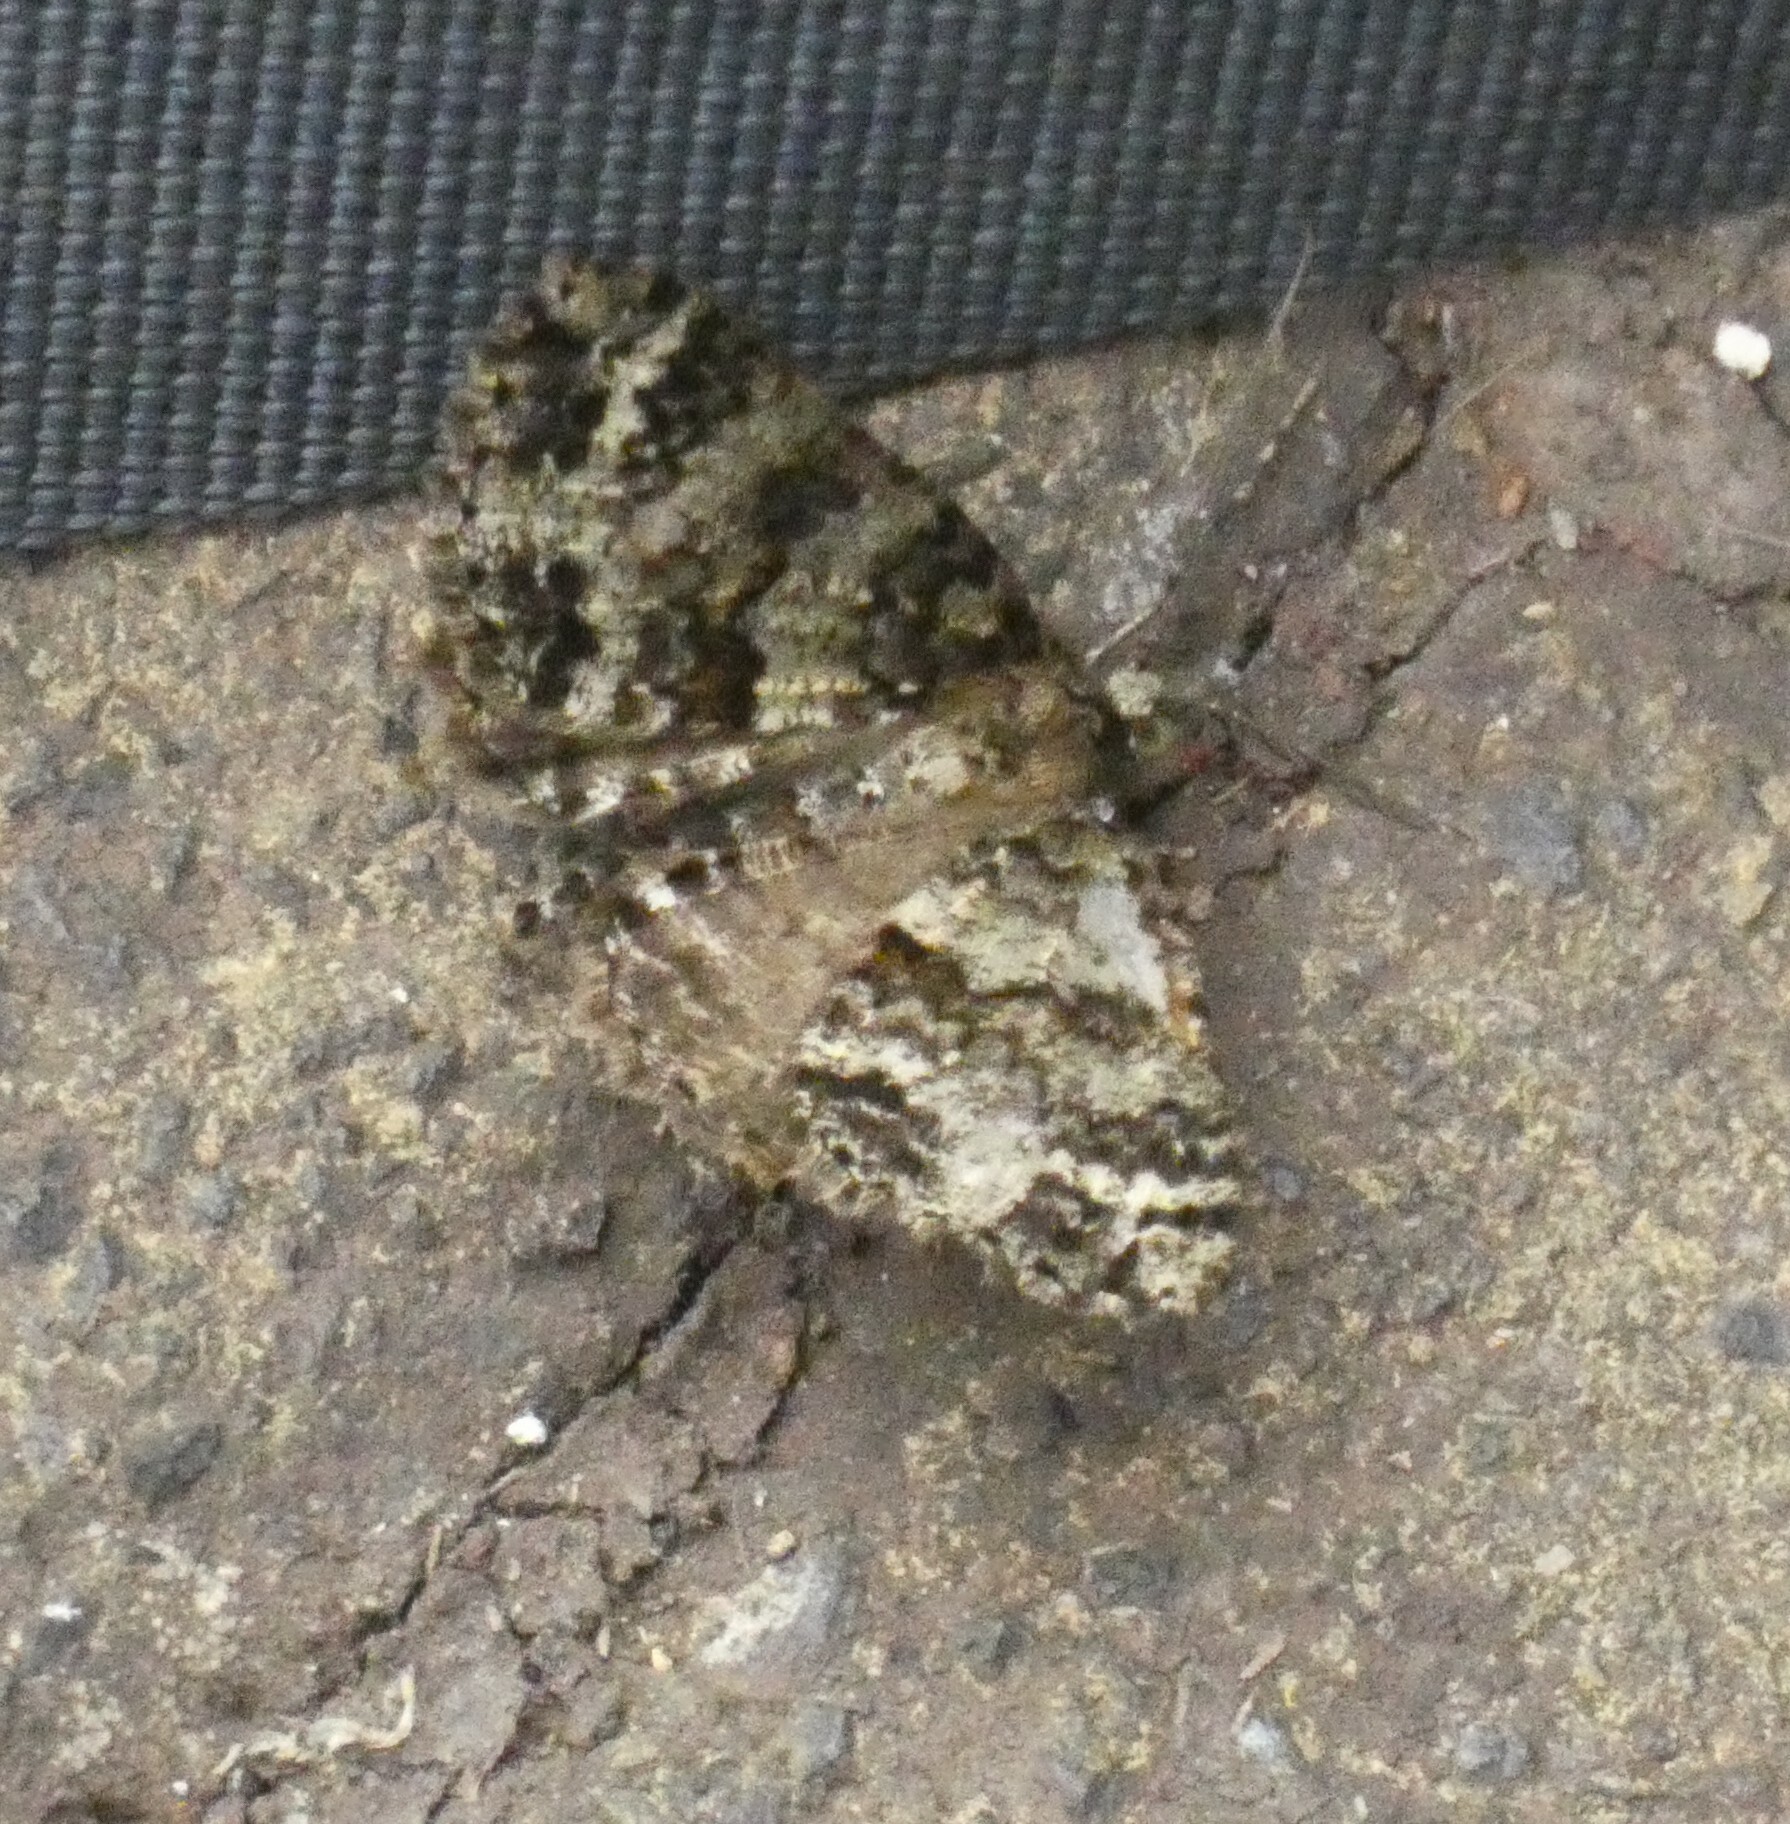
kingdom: Animalia
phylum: Arthropoda
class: Insecta
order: Lepidoptera
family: Geometridae
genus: Ascotis
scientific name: Ascotis fortunata
